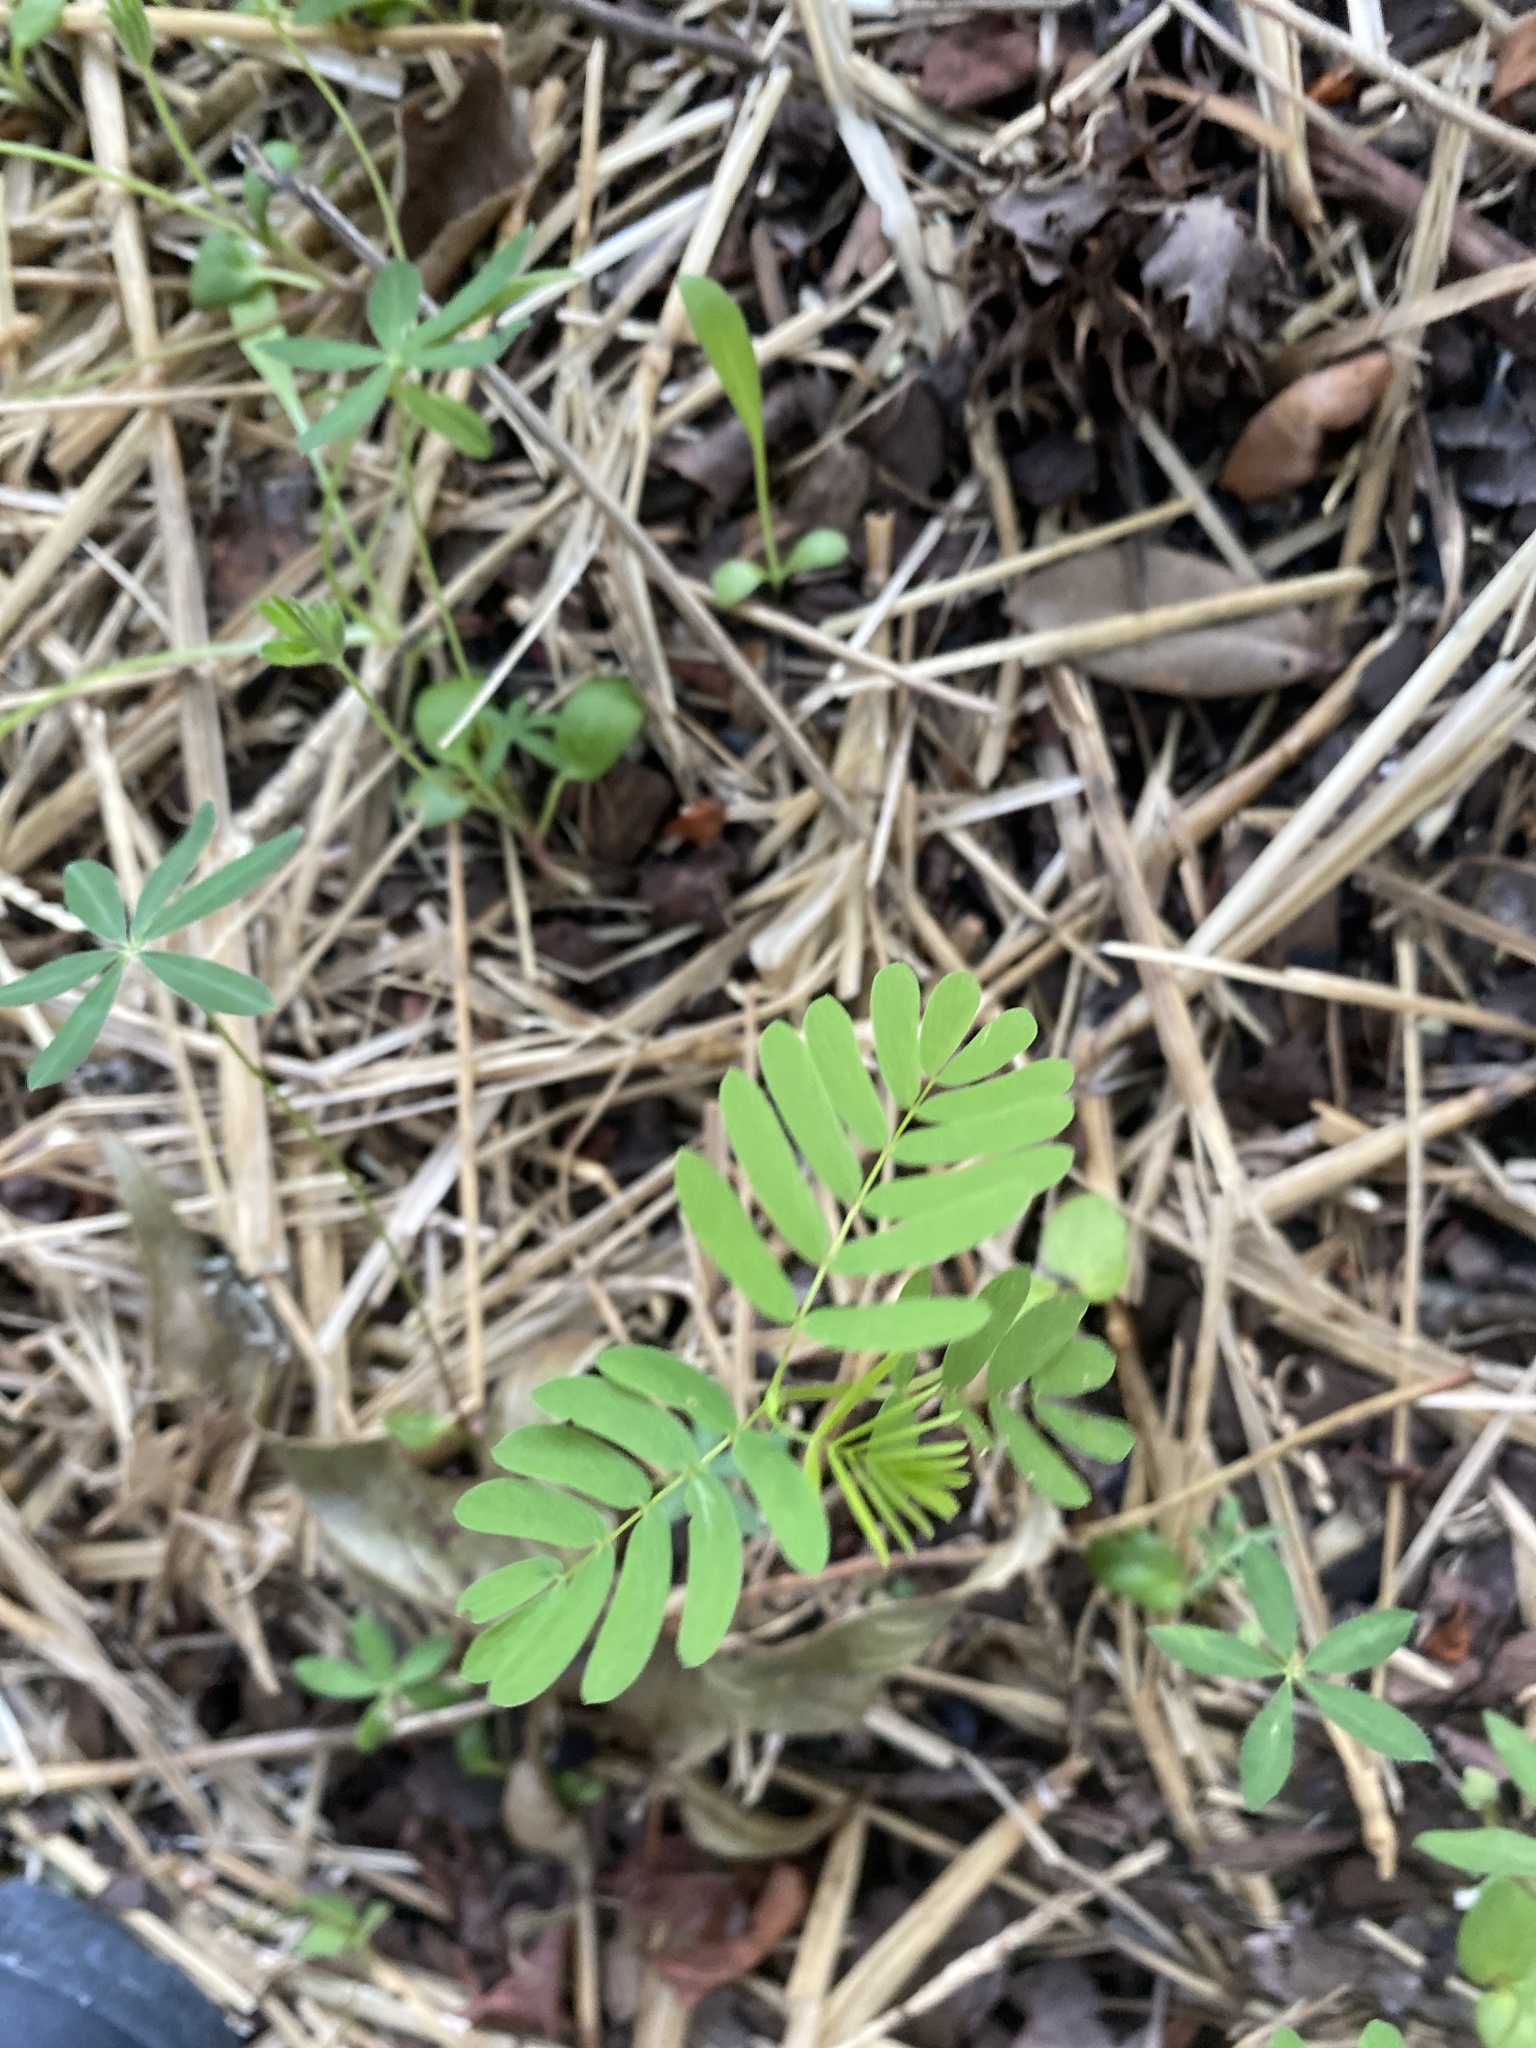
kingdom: Plantae
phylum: Tracheophyta
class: Magnoliopsida
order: Malpighiales
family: Phyllanthaceae
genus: Phyllanthus
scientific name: Phyllanthus urinaria
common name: Chamber bitter
